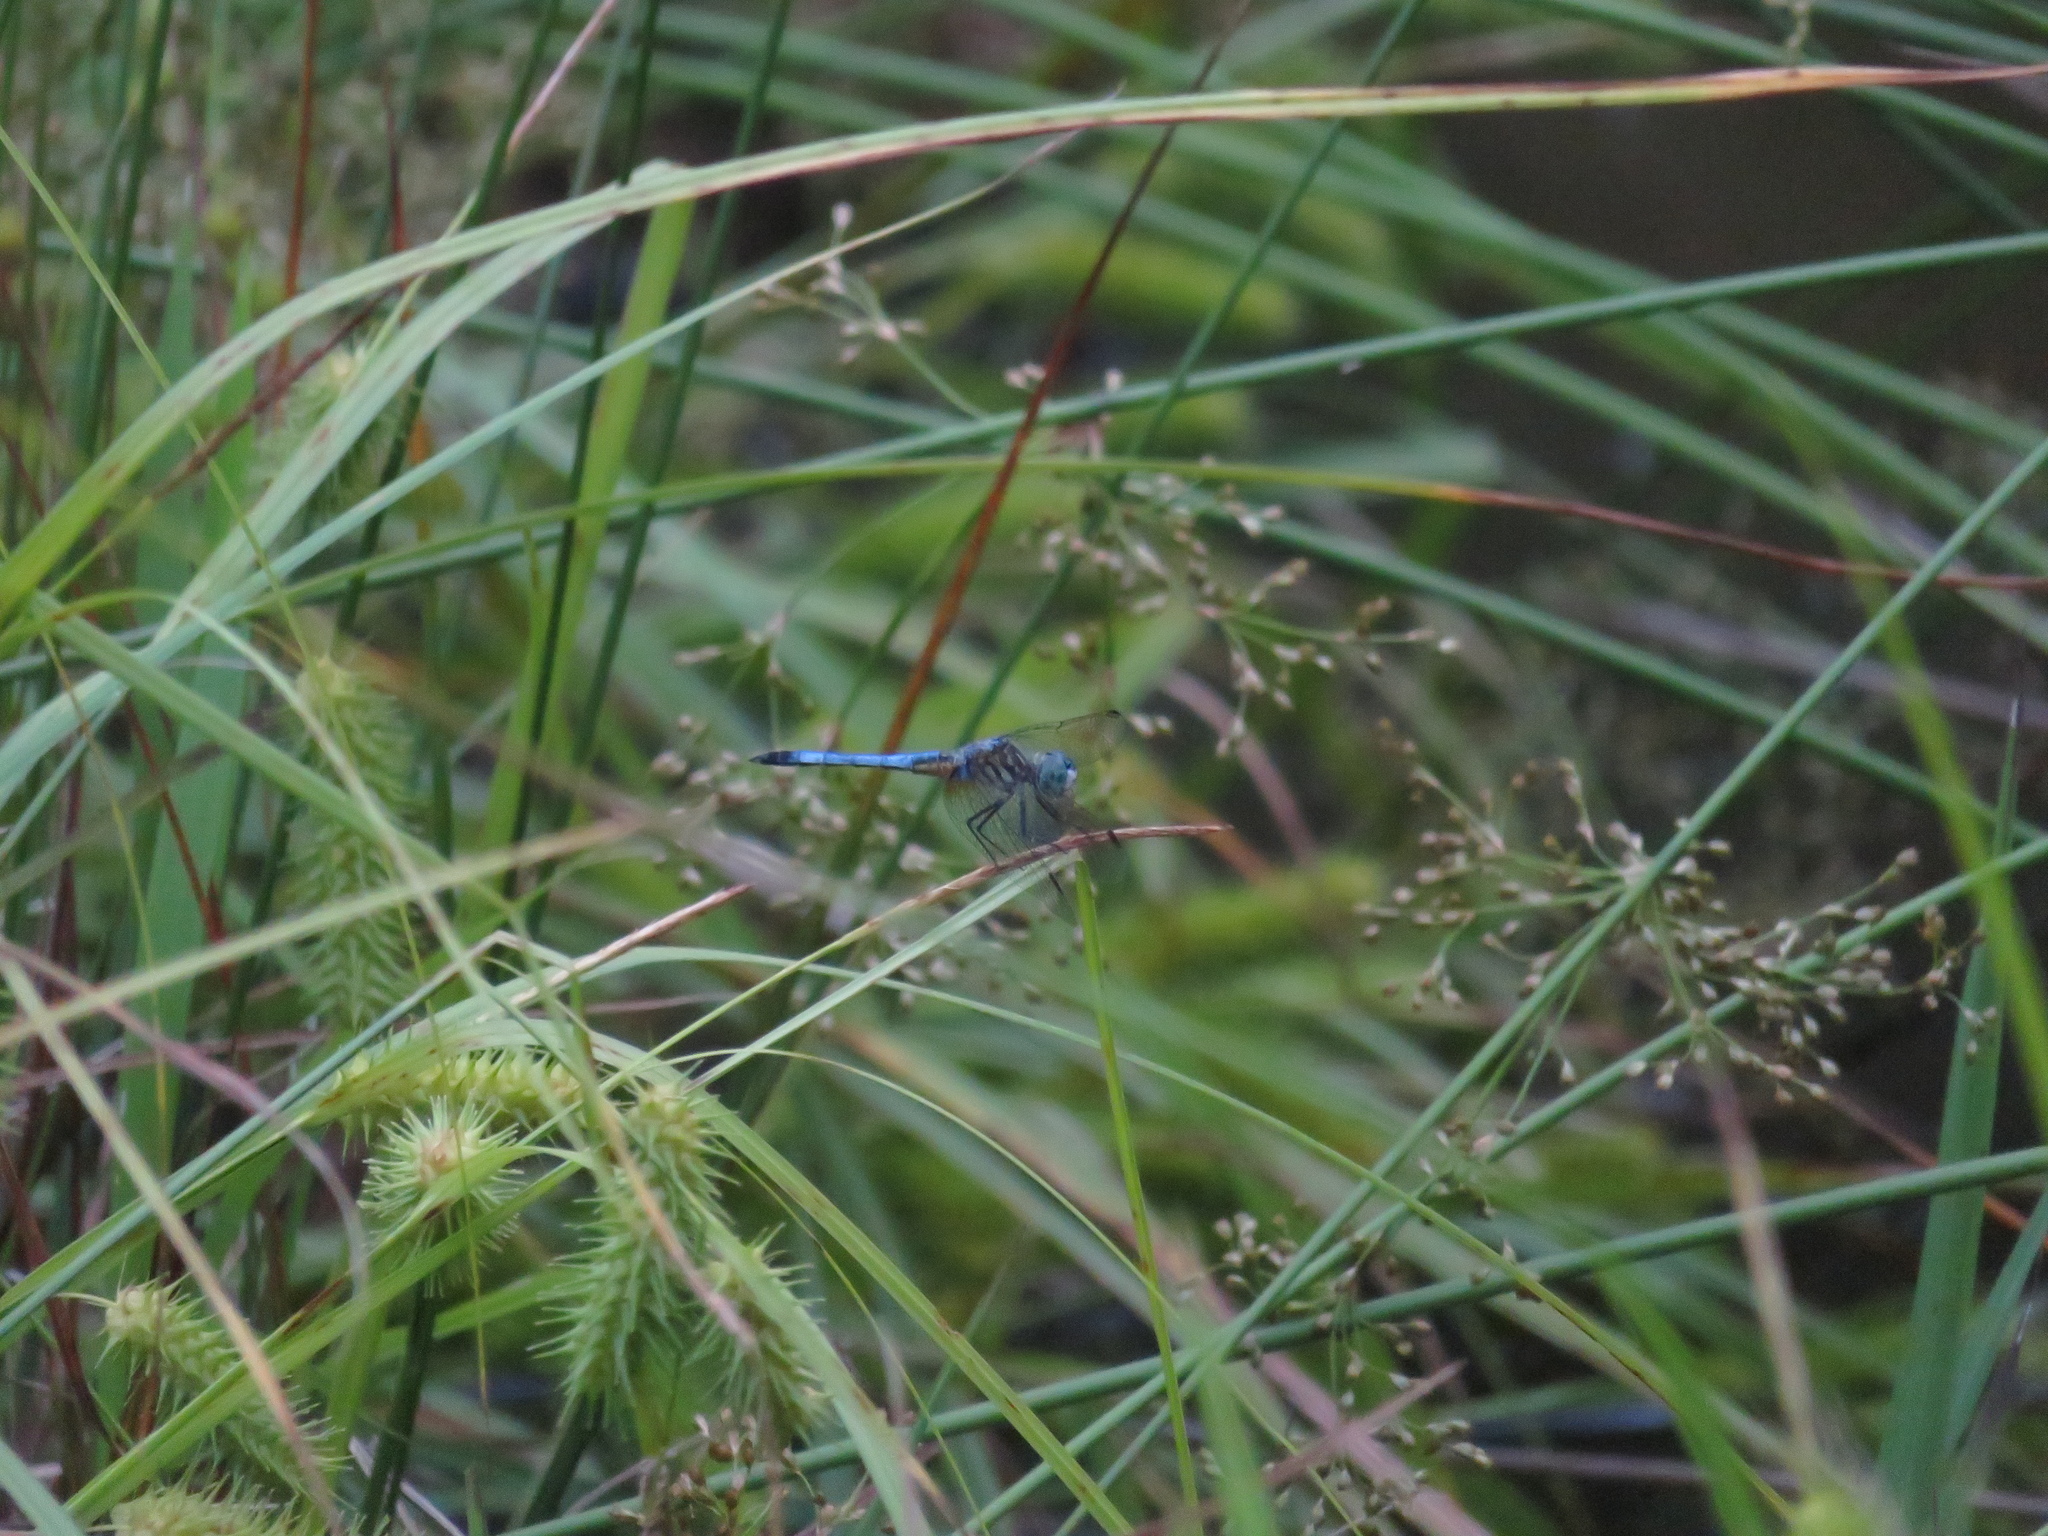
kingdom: Animalia
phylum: Arthropoda
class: Insecta
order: Odonata
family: Libellulidae
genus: Pachydiplax
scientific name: Pachydiplax longipennis
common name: Blue dasher
